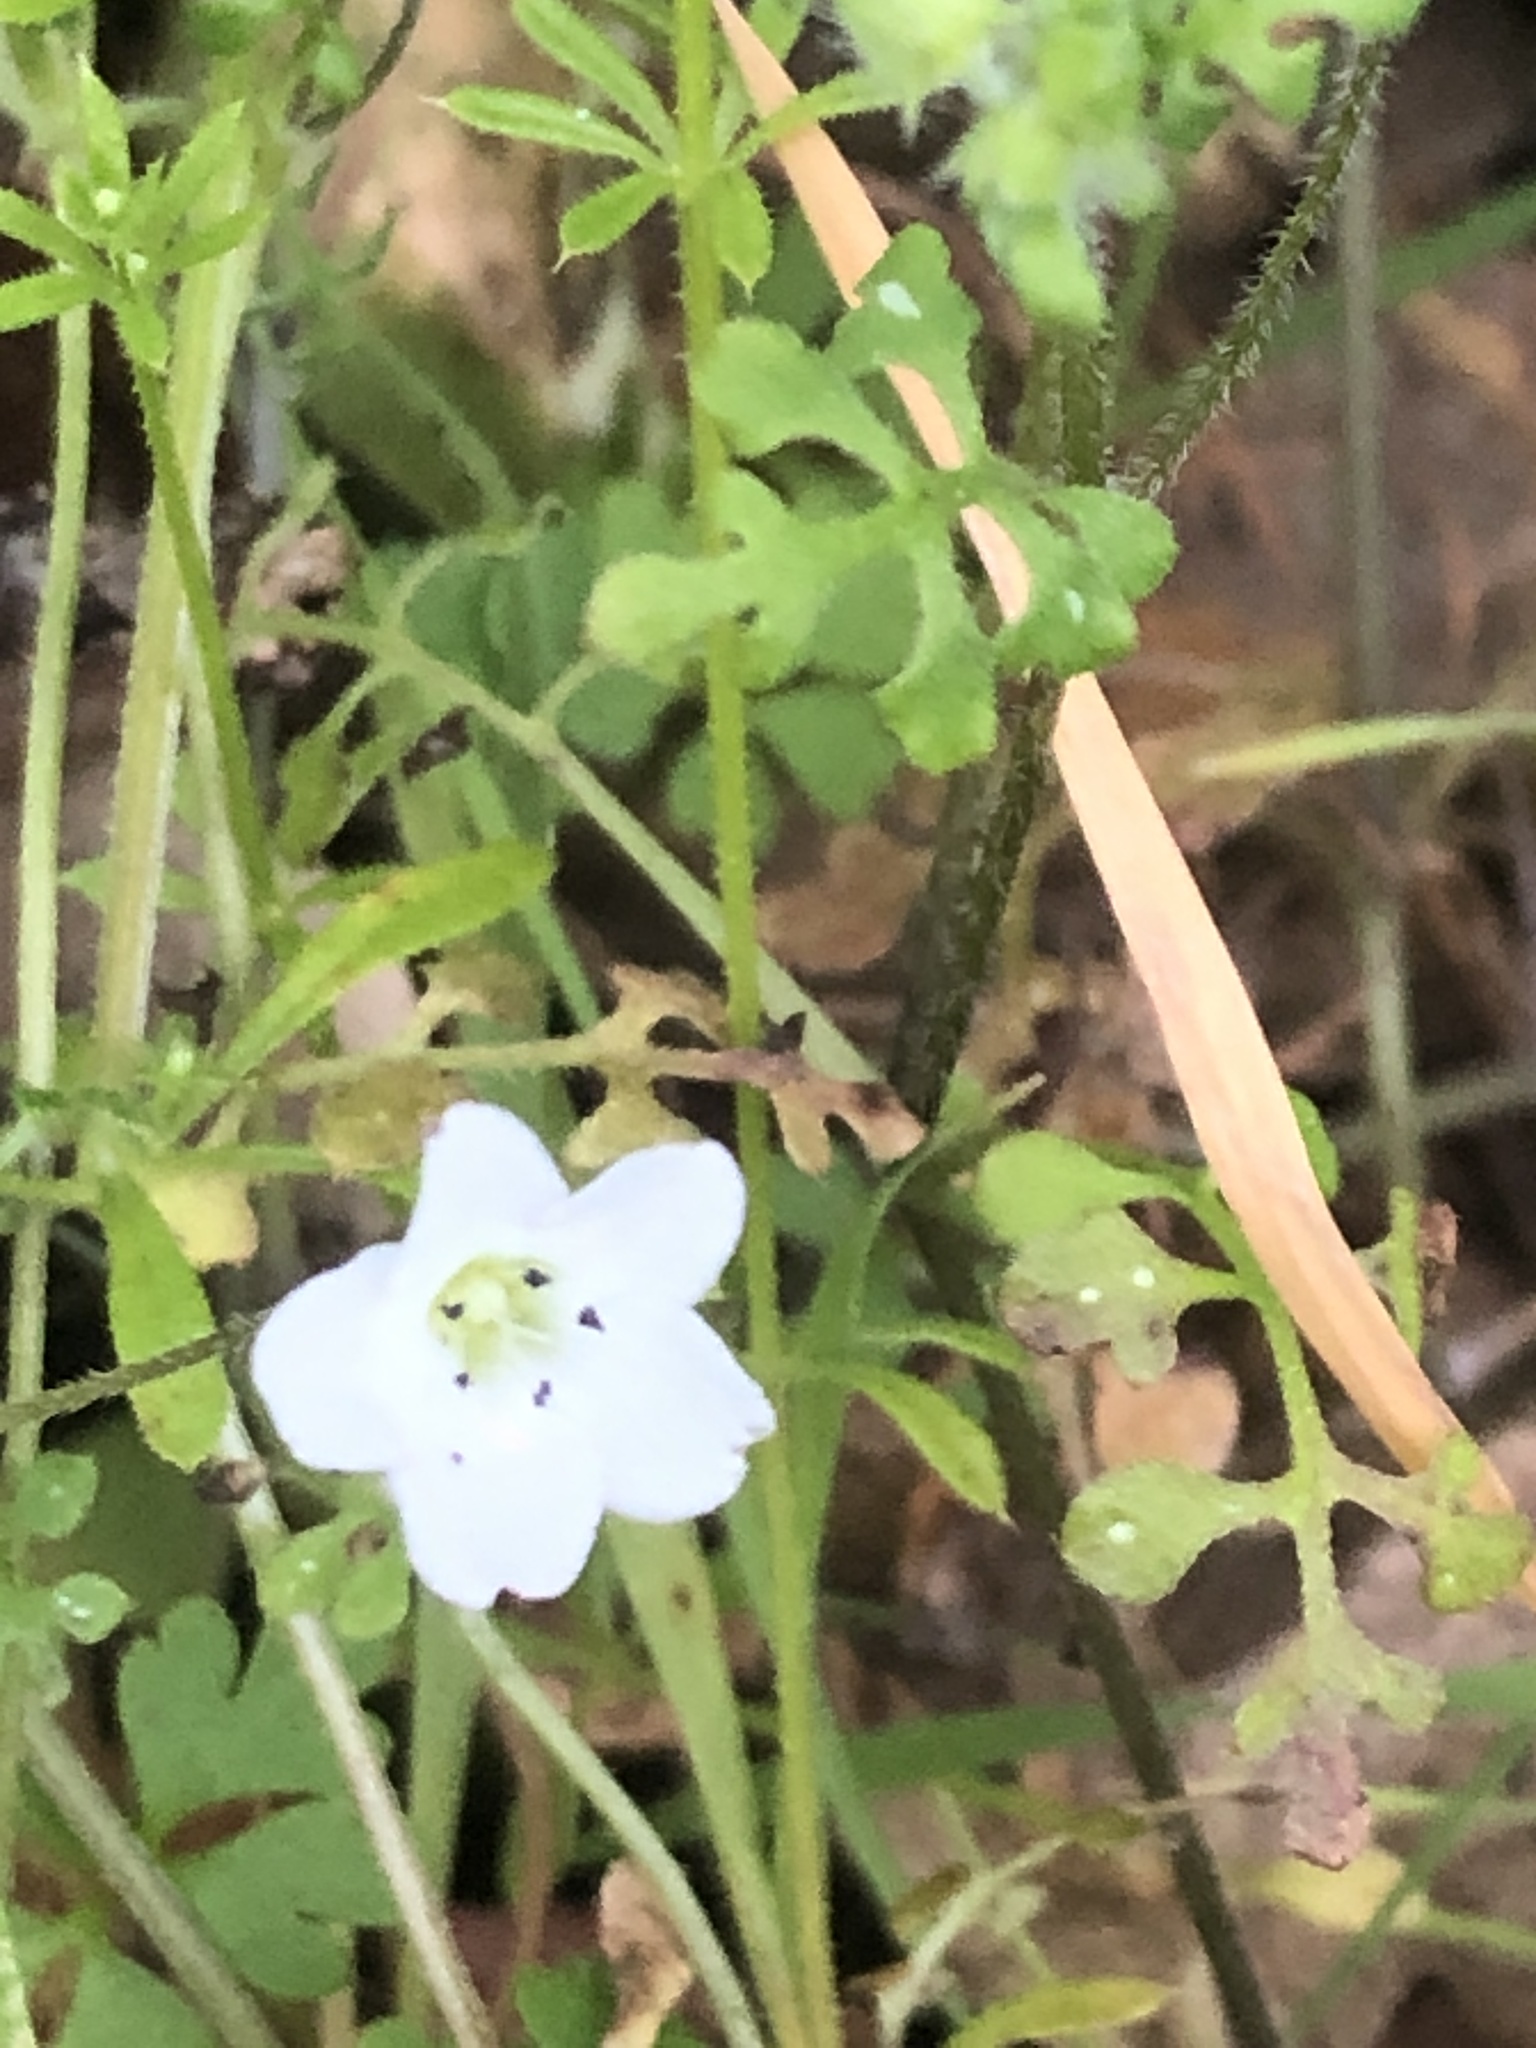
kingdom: Plantae
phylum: Tracheophyta
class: Magnoliopsida
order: Boraginales
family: Hydrophyllaceae
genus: Nemophila
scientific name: Nemophila heterophylla
